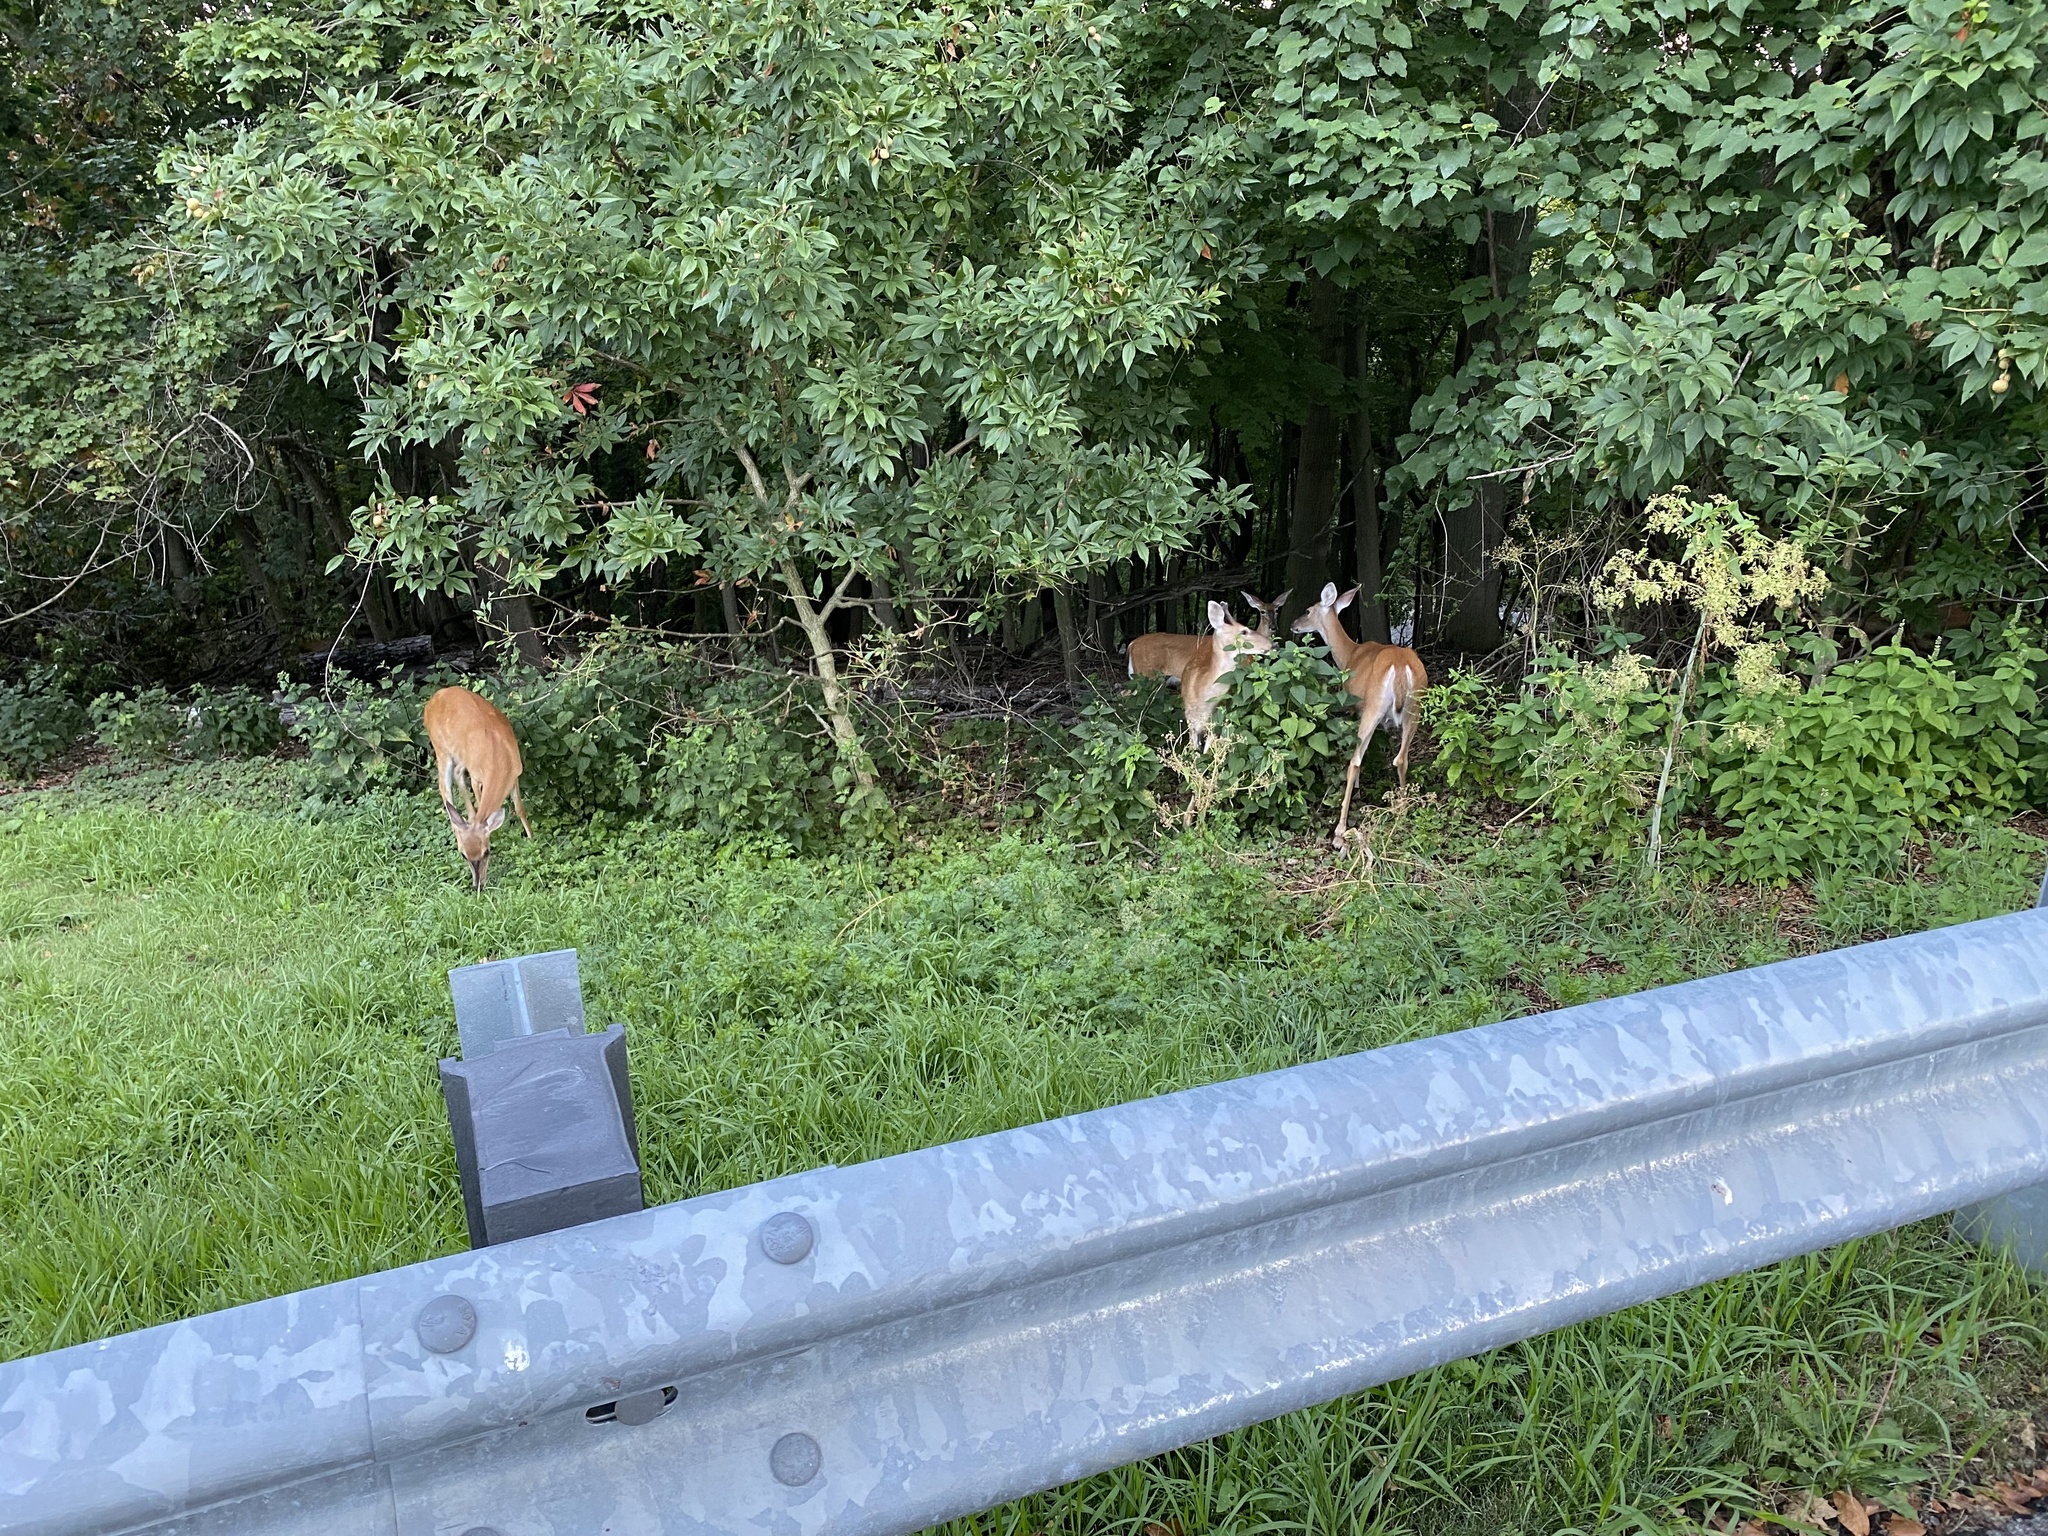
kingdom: Animalia
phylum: Chordata
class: Mammalia
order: Artiodactyla
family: Cervidae
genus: Odocoileus
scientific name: Odocoileus virginianus
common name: White-tailed deer
